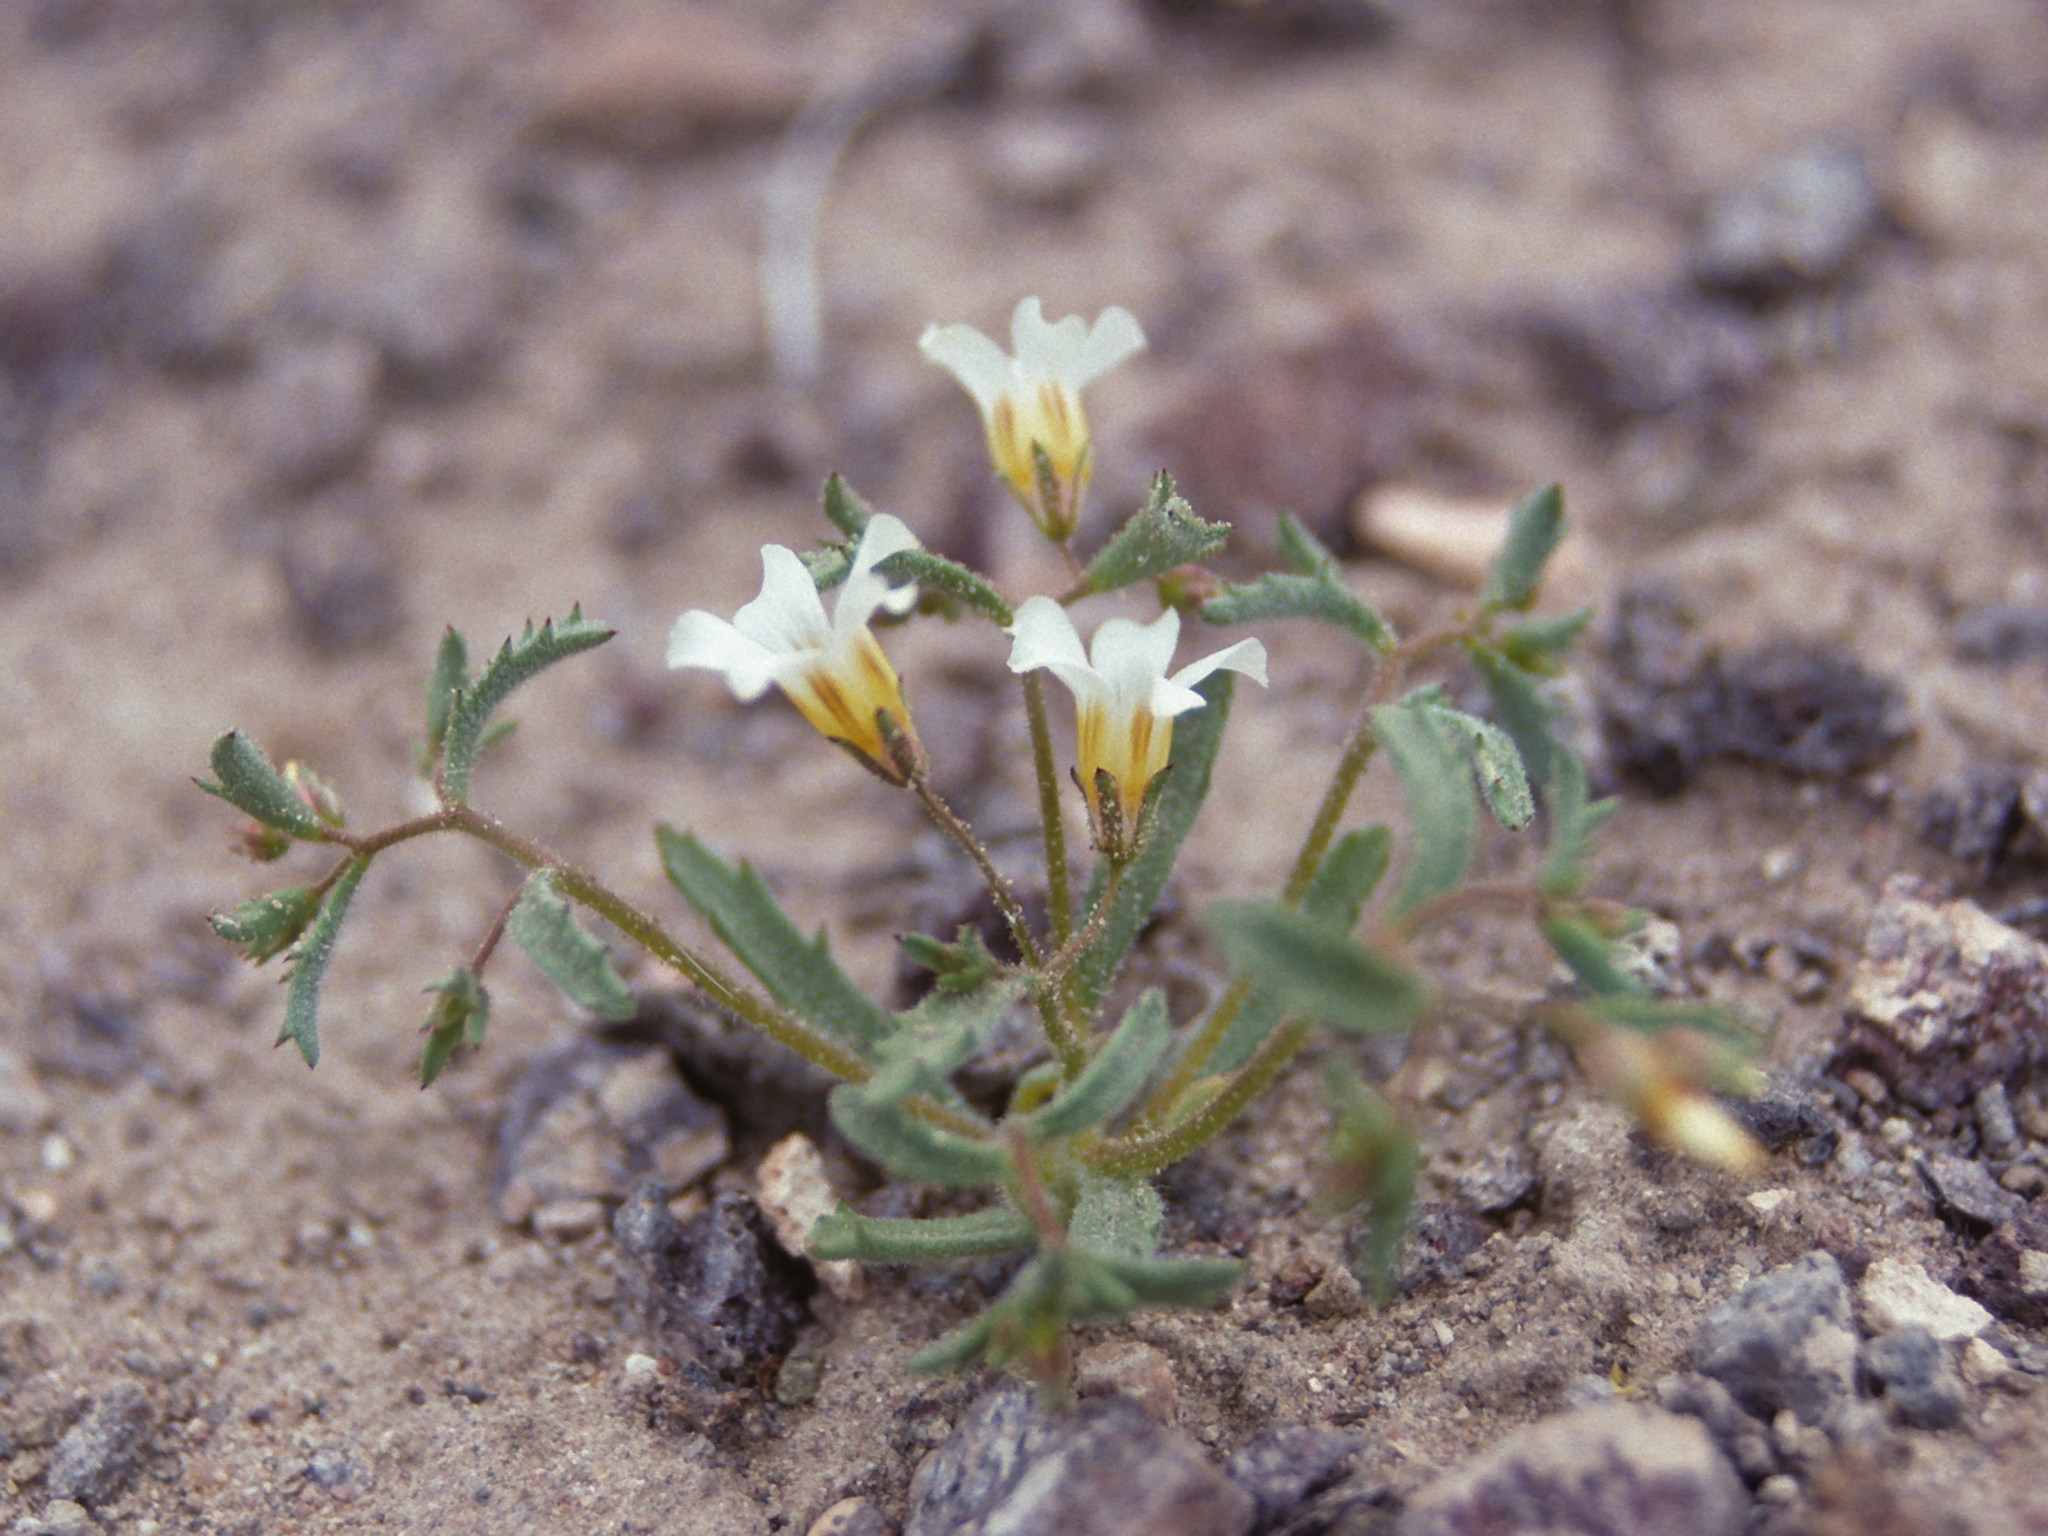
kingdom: Plantae
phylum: Tracheophyta
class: Magnoliopsida
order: Ericales
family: Polemoniaceae
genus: Linanthus
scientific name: Linanthus campanulatus
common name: Bellshape gilia
